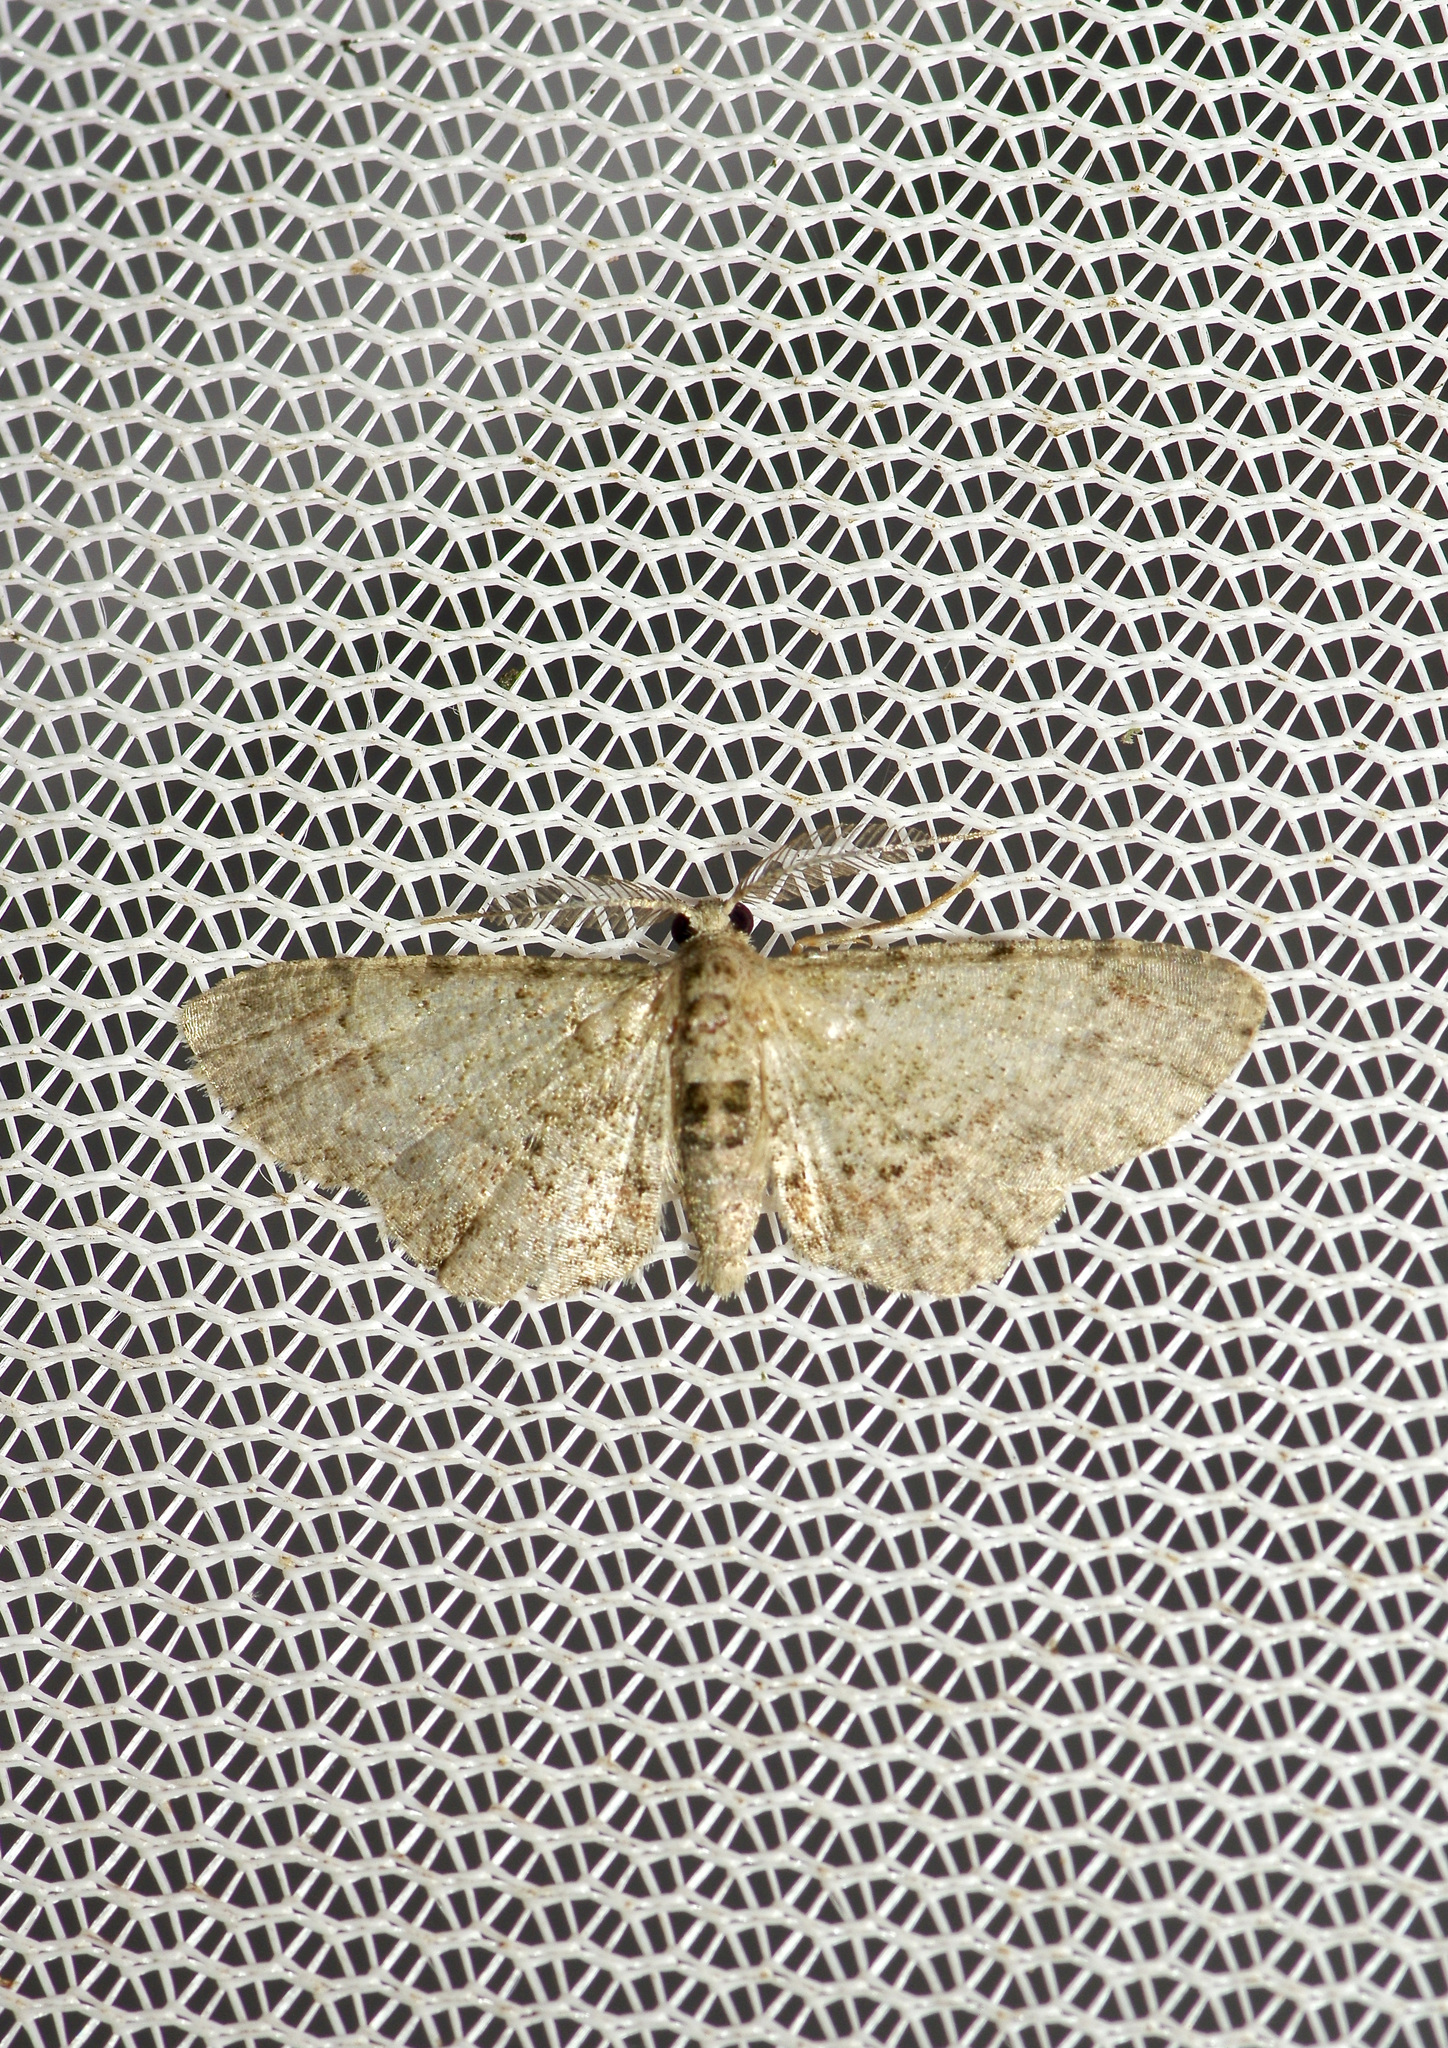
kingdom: Animalia
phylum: Arthropoda
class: Insecta
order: Lepidoptera
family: Geometridae
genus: Glenoides
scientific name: Glenoides texanaria
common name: Texas gray
